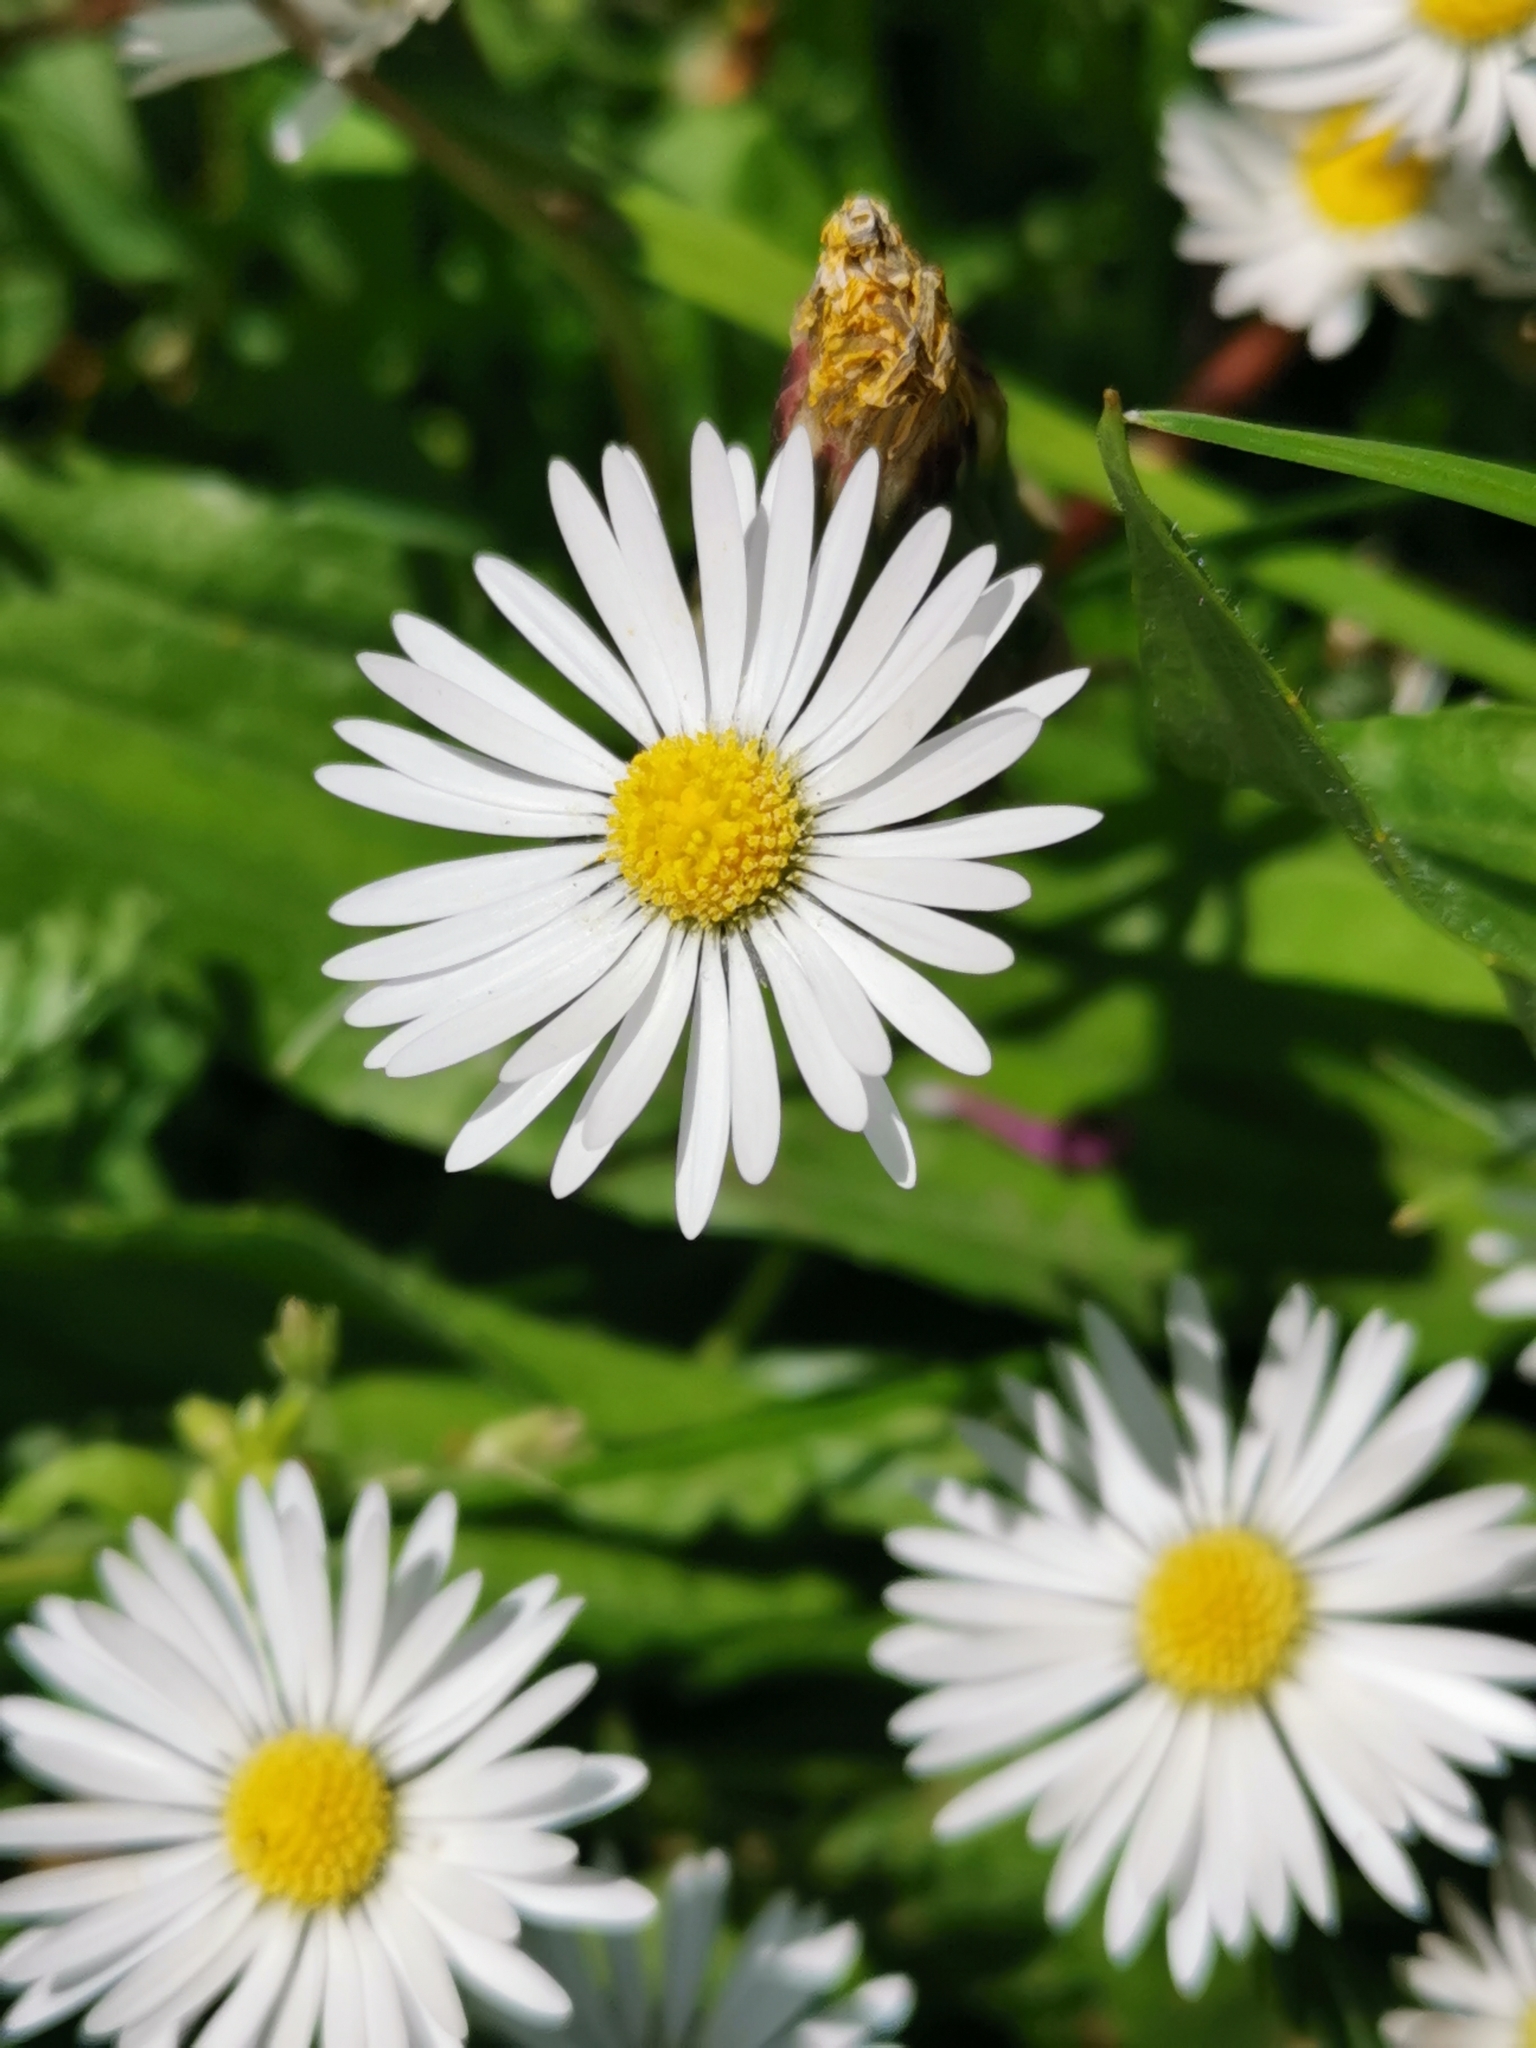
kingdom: Plantae
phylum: Tracheophyta
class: Magnoliopsida
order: Asterales
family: Asteraceae
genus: Bellis
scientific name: Bellis perennis
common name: Lawndaisy
